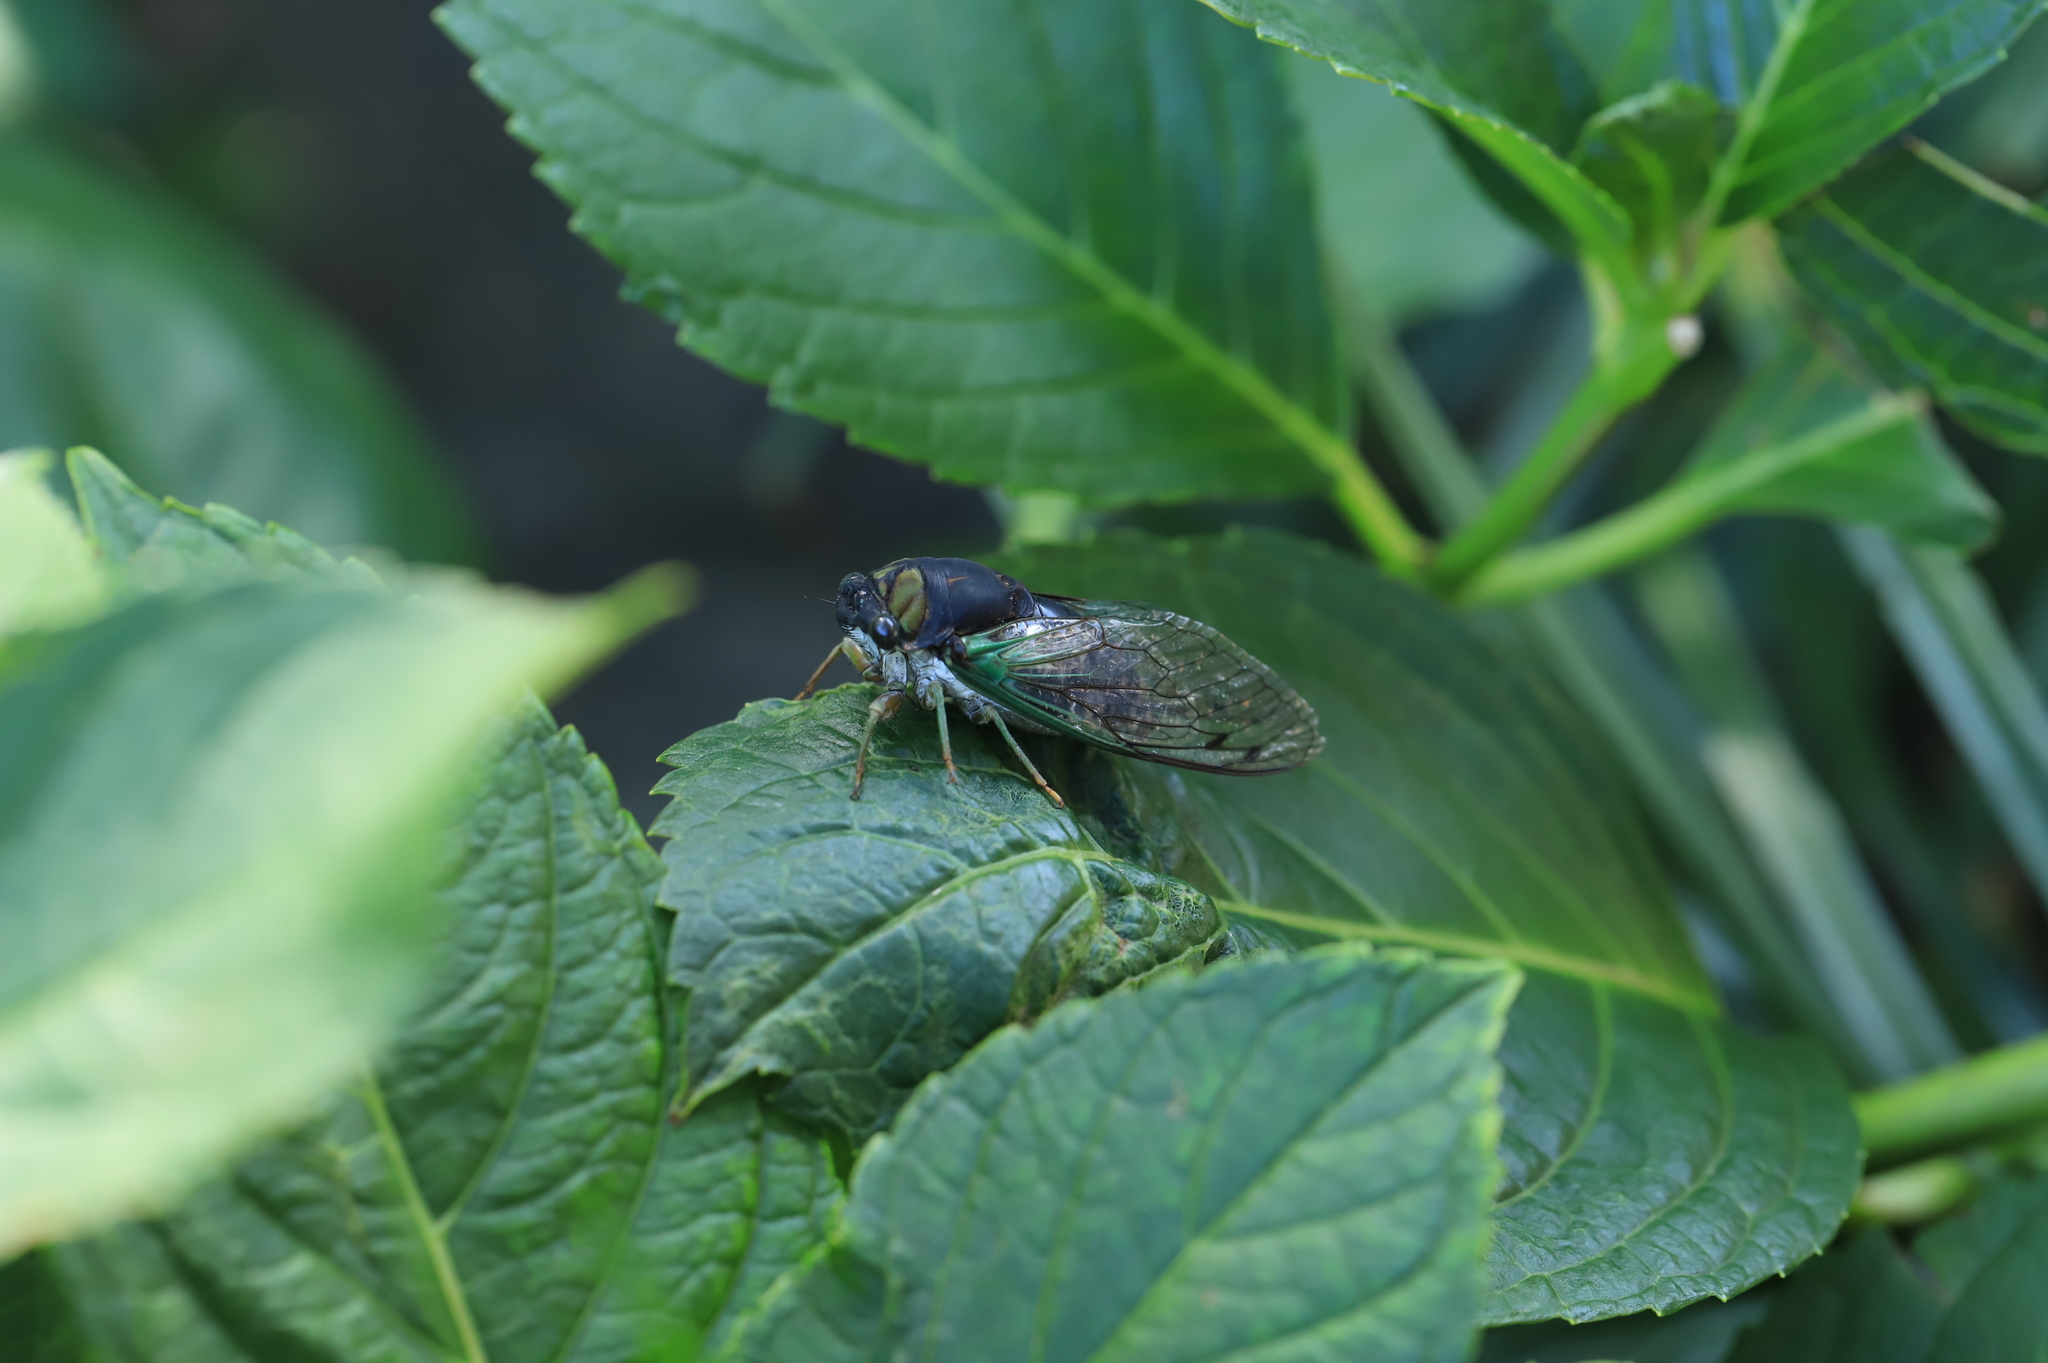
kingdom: Animalia
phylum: Arthropoda
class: Insecta
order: Hemiptera
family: Cicadidae
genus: Neotibicen
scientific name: Neotibicen tibicen
